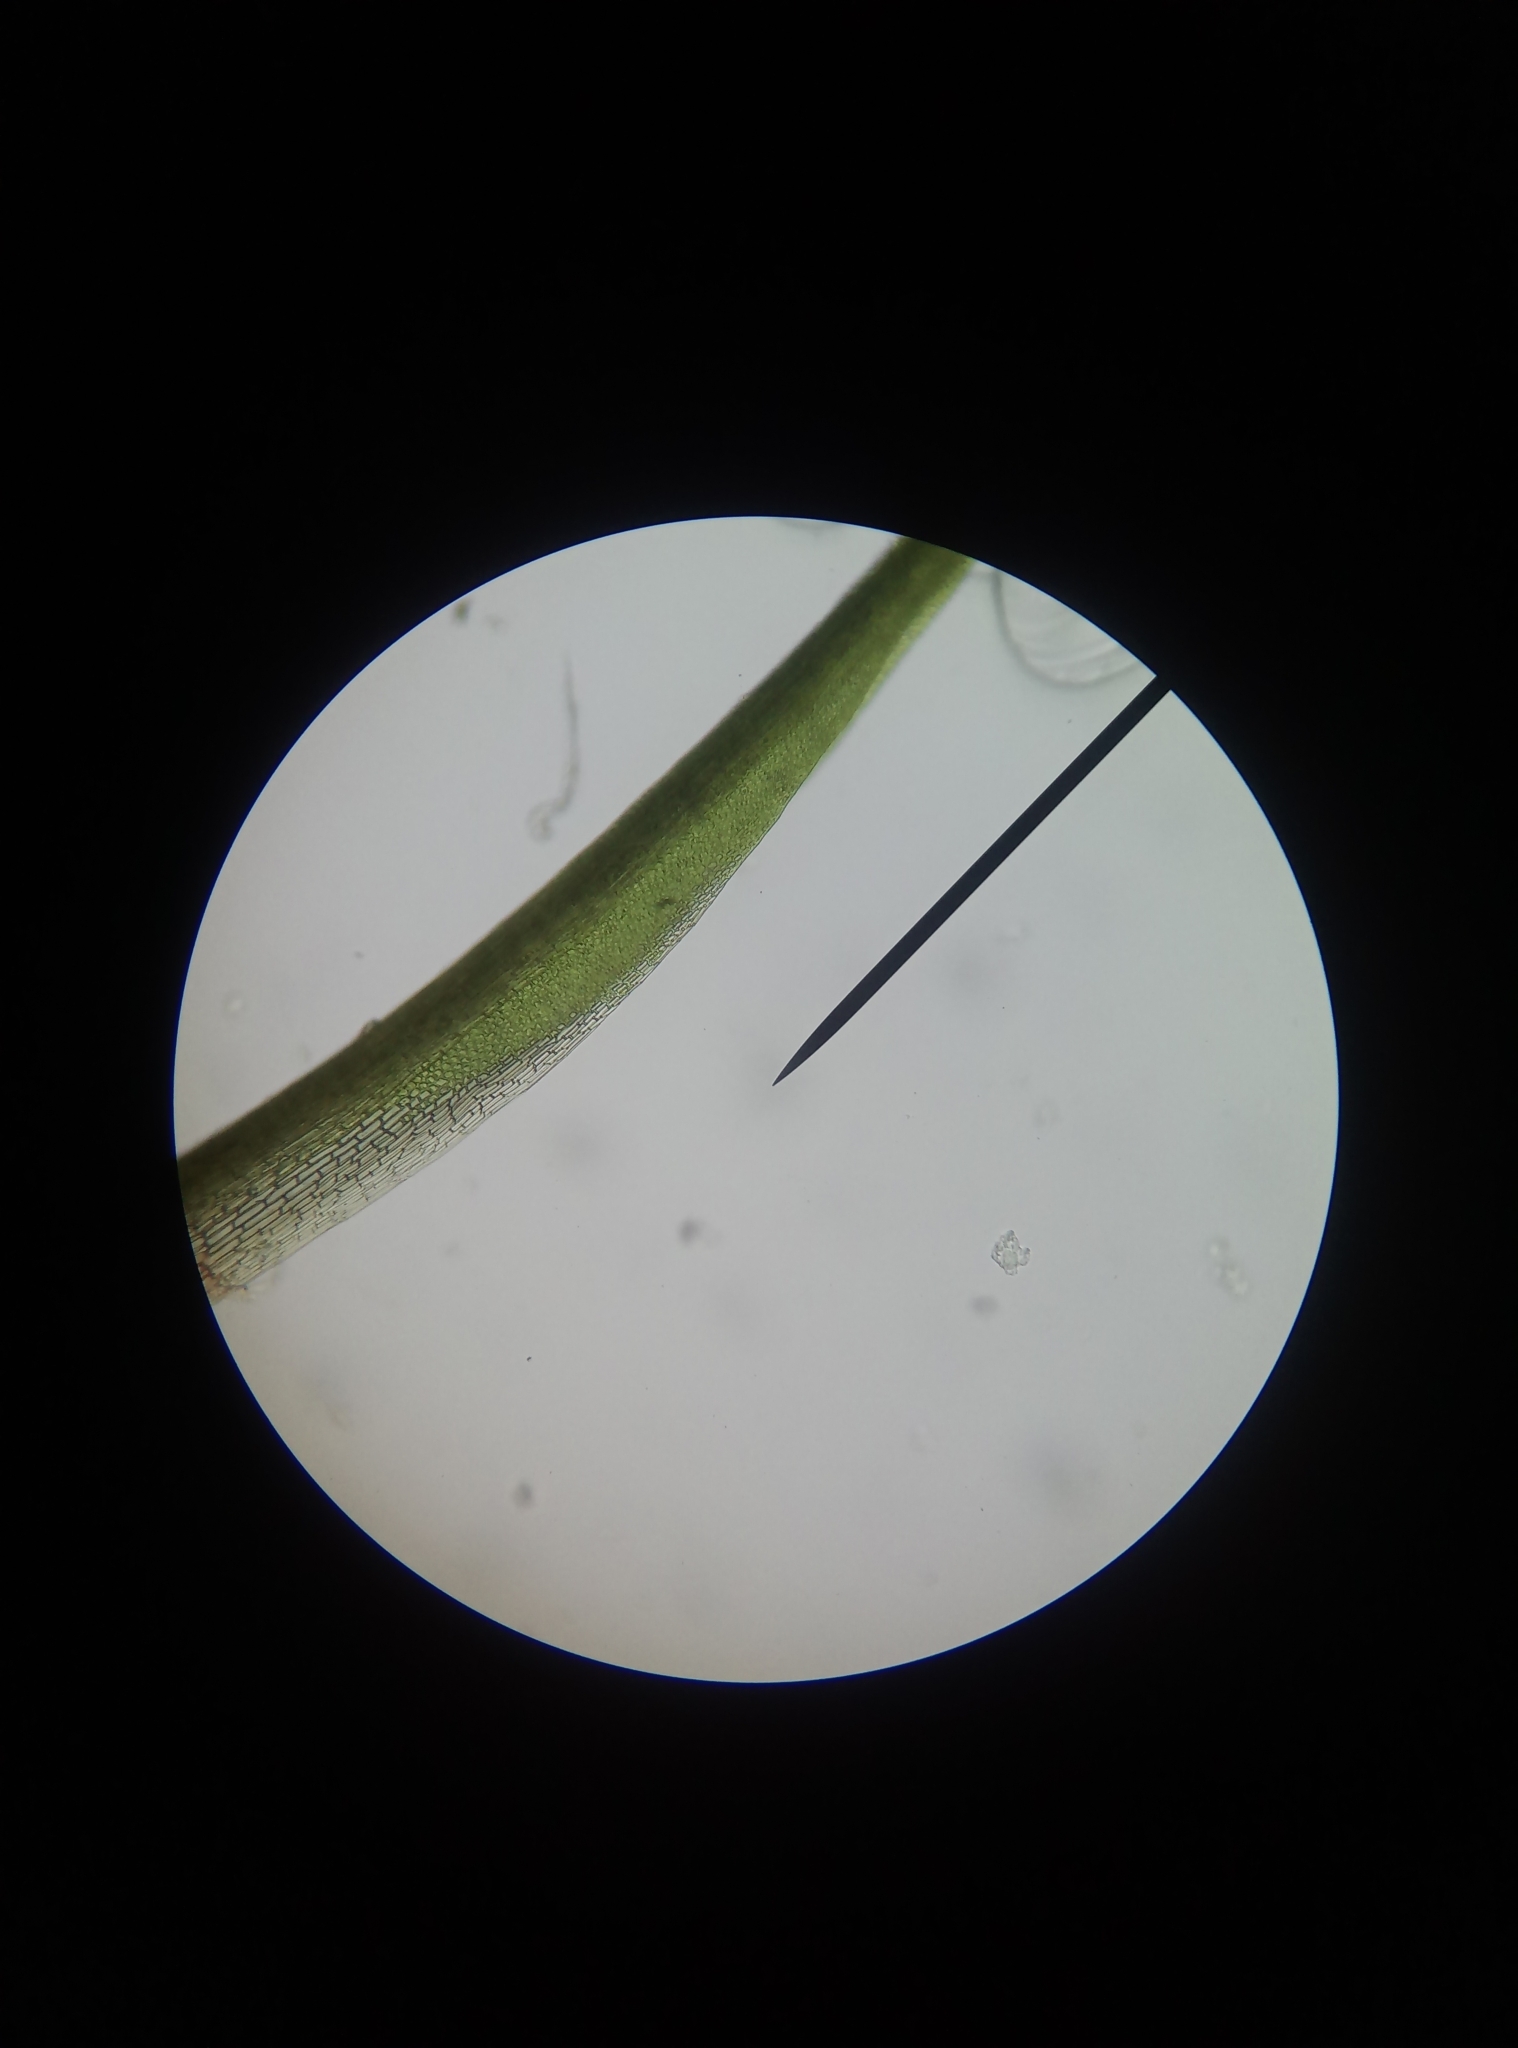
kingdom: Plantae
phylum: Bryophyta
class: Bryopsida
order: Dicranales
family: Leucobryaceae
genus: Campylopus
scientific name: Campylopus introflexus
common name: Heath star moss
